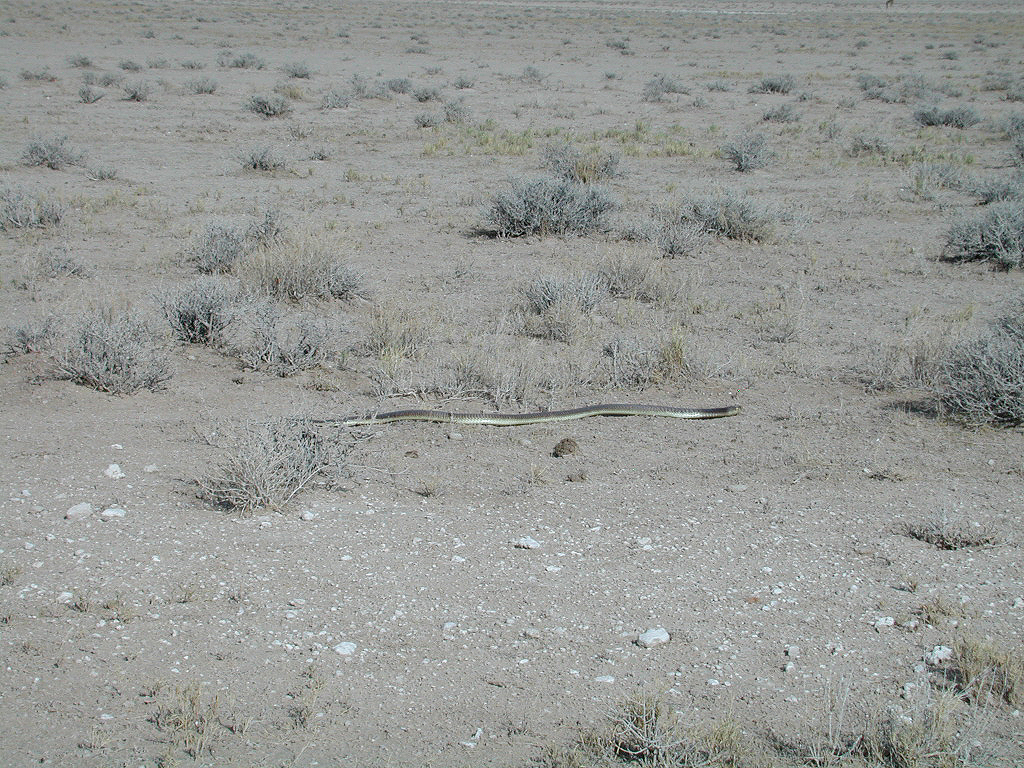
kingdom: Animalia
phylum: Chordata
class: Squamata
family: Elapidae
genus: Naja
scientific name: Naja anchietae
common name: Anchieta's cobra
